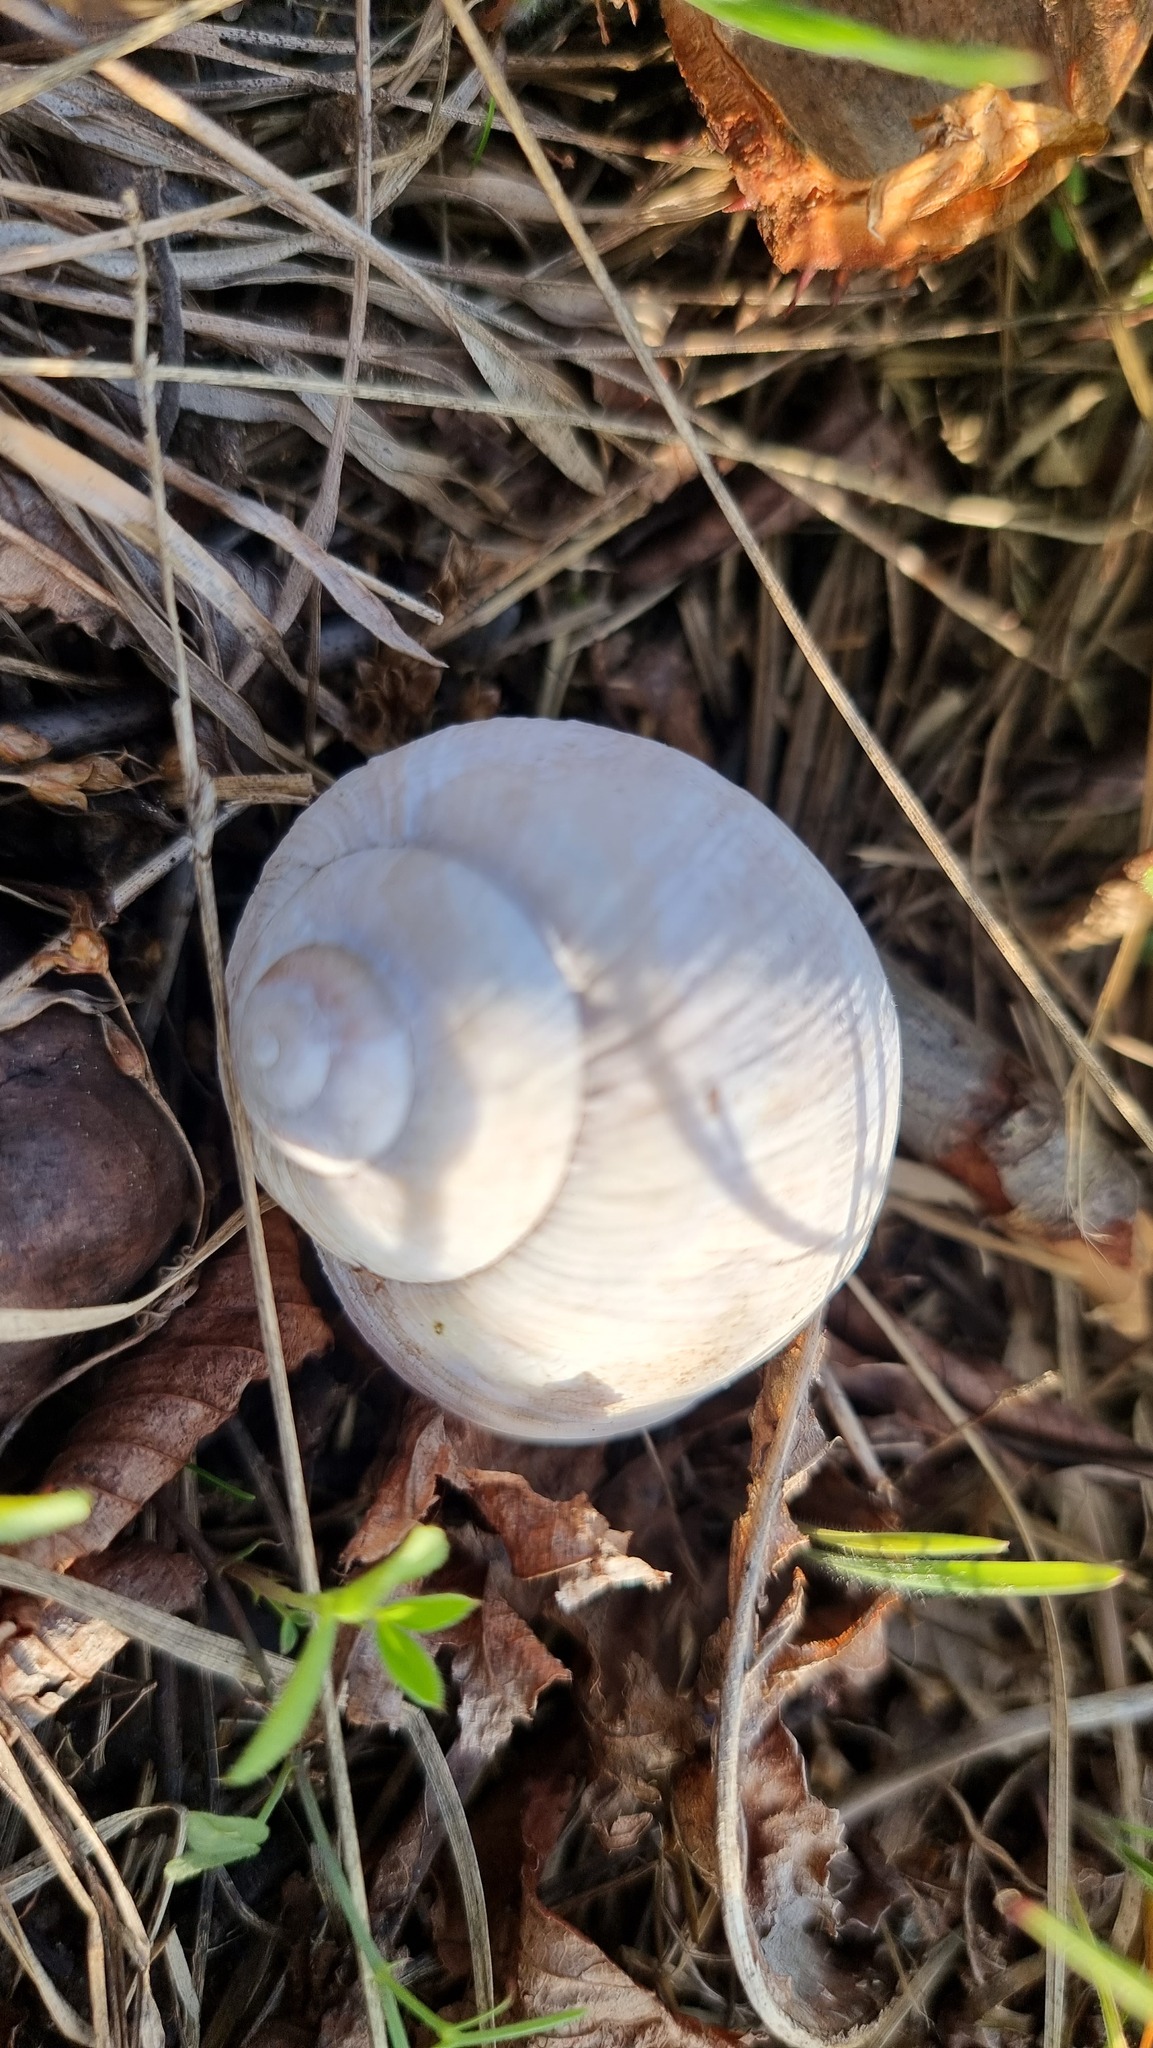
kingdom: Animalia
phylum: Mollusca
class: Gastropoda
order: Stylommatophora
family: Helicidae
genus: Helix
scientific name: Helix pomatia
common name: Roman snail
